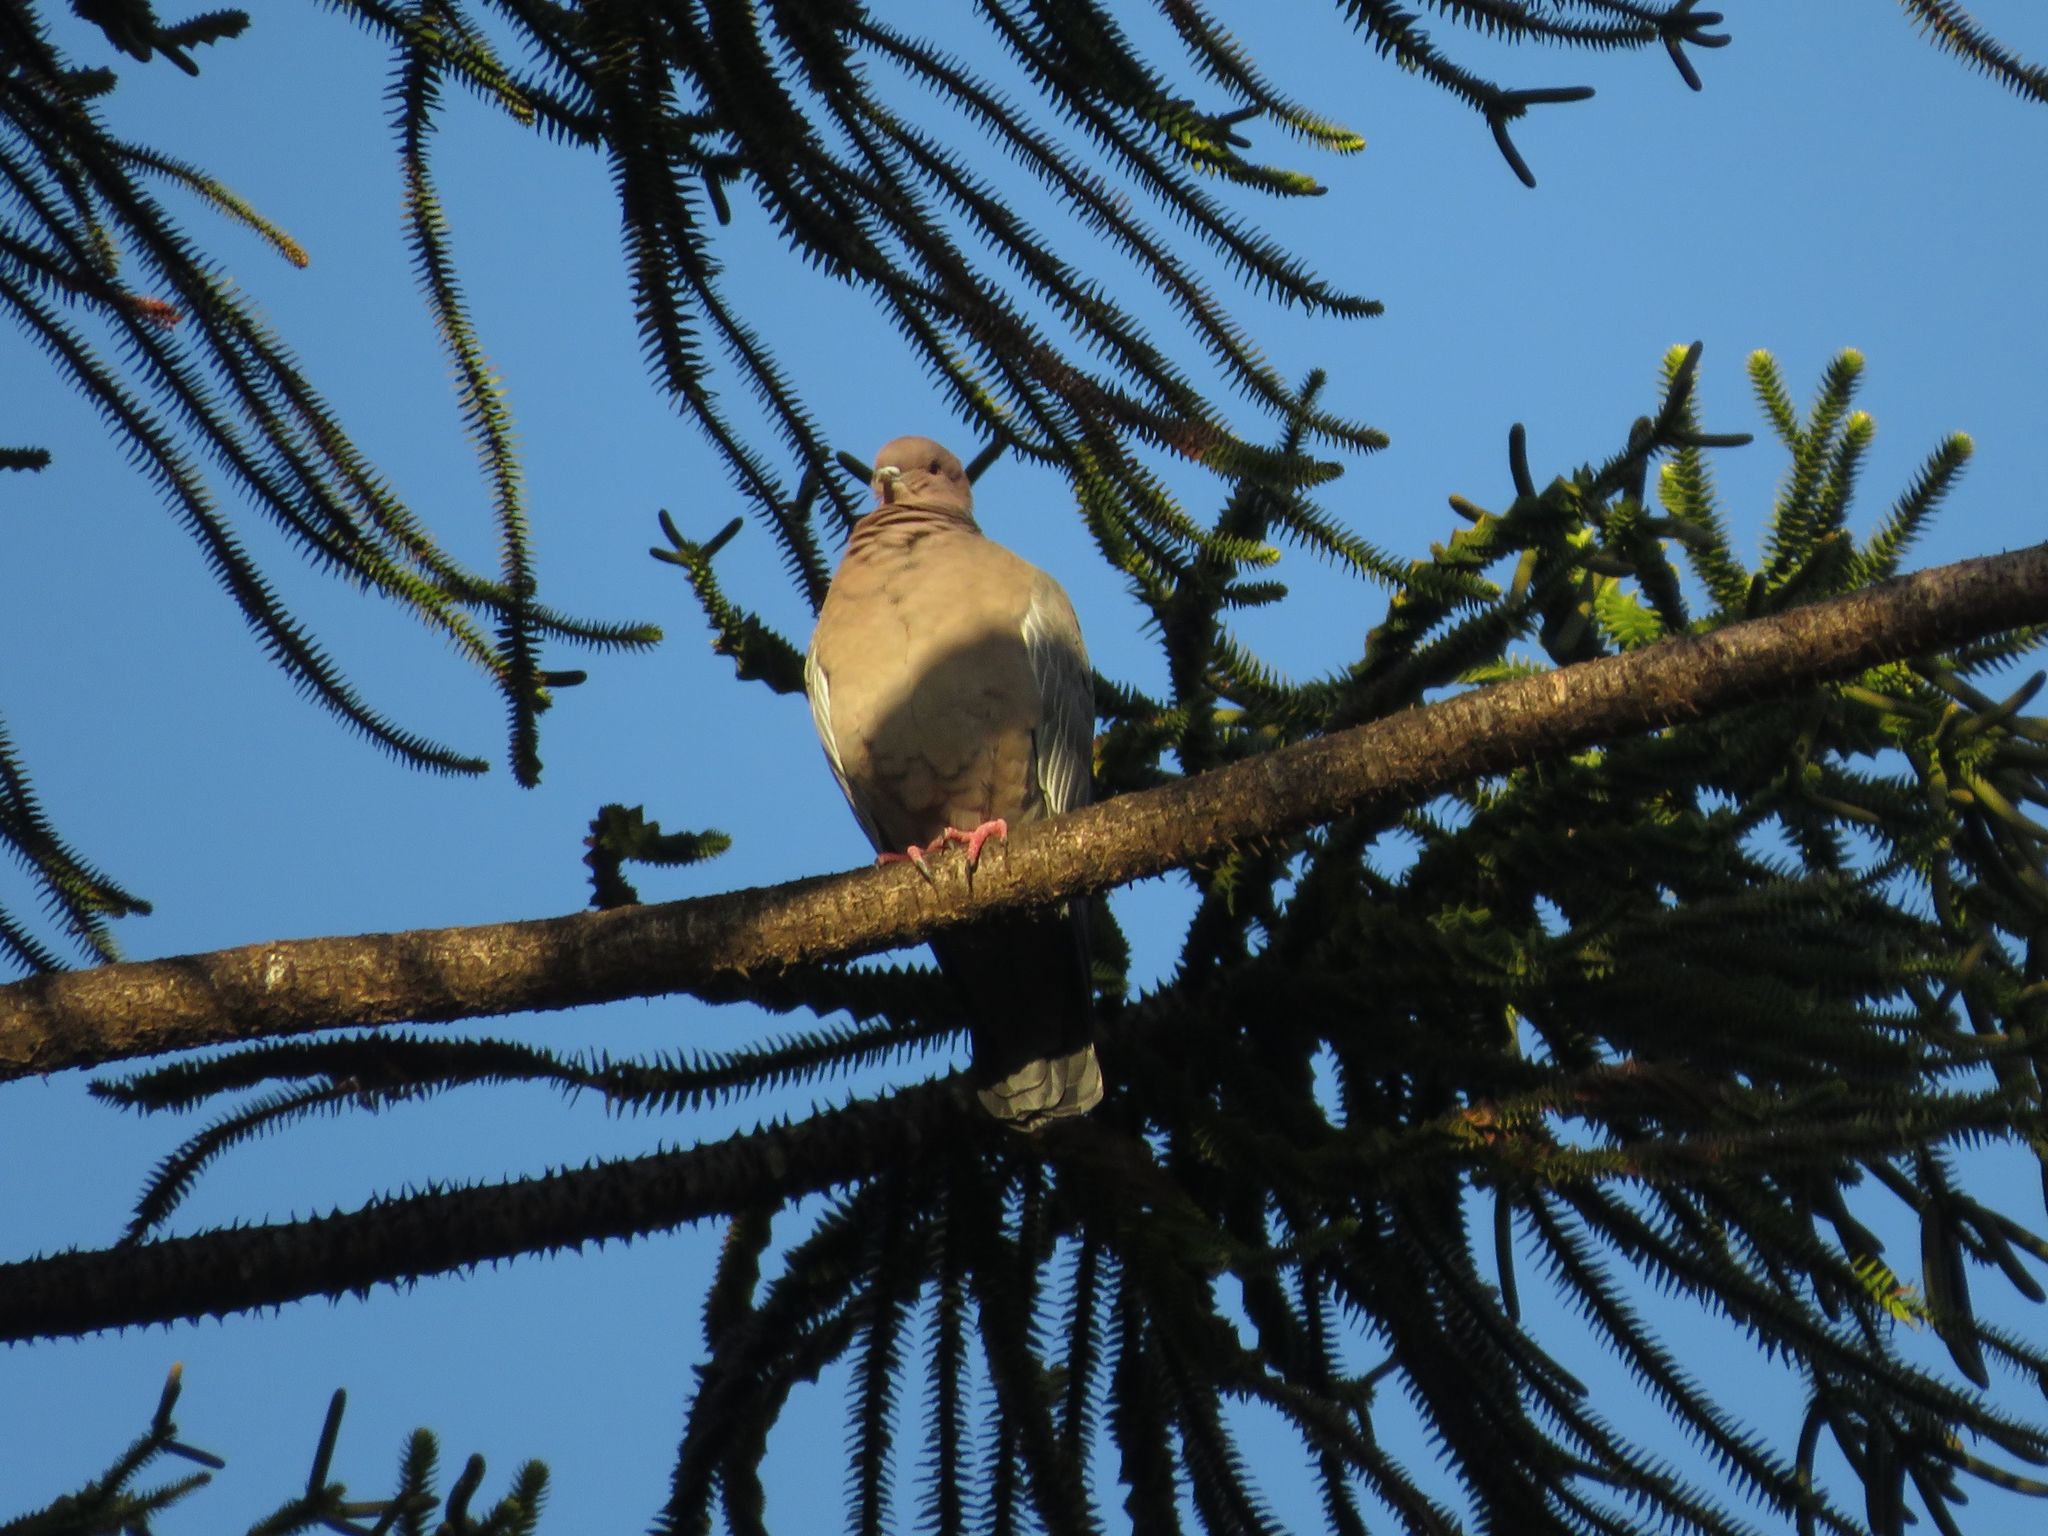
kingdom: Animalia
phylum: Chordata
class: Aves
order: Columbiformes
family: Columbidae
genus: Patagioenas
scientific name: Patagioenas picazuro
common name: Picazuro pigeon
